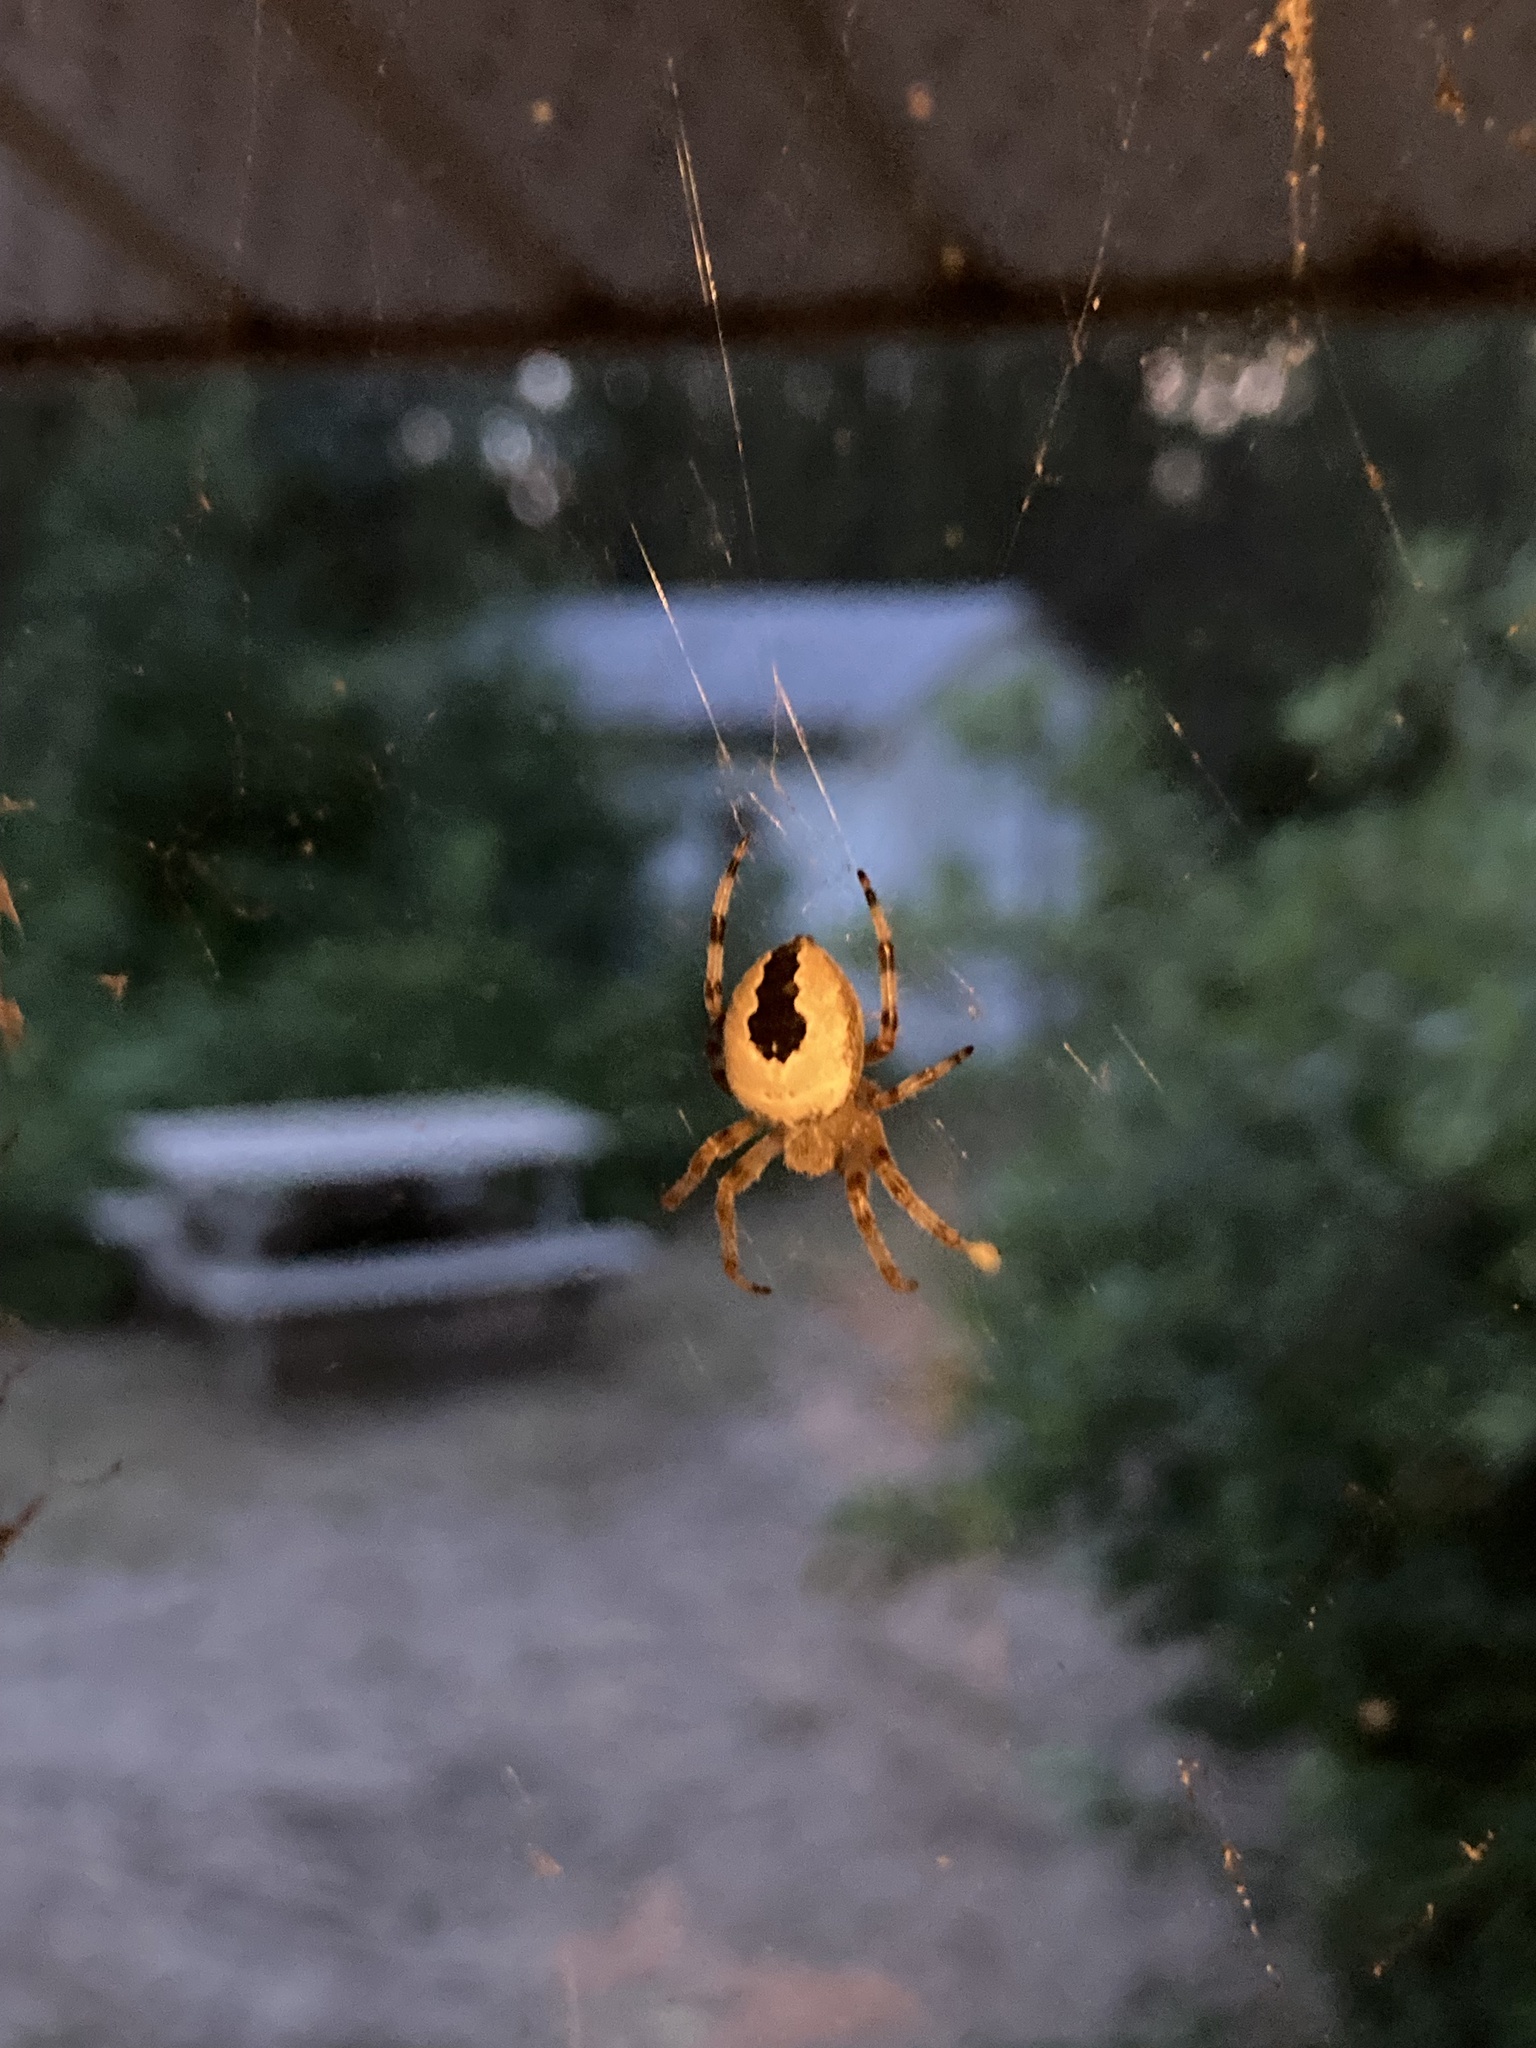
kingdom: Animalia
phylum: Arthropoda
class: Arachnida
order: Araneae
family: Araneidae
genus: Araneus
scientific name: Araneus marmoreus
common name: Marbled orbweaver
